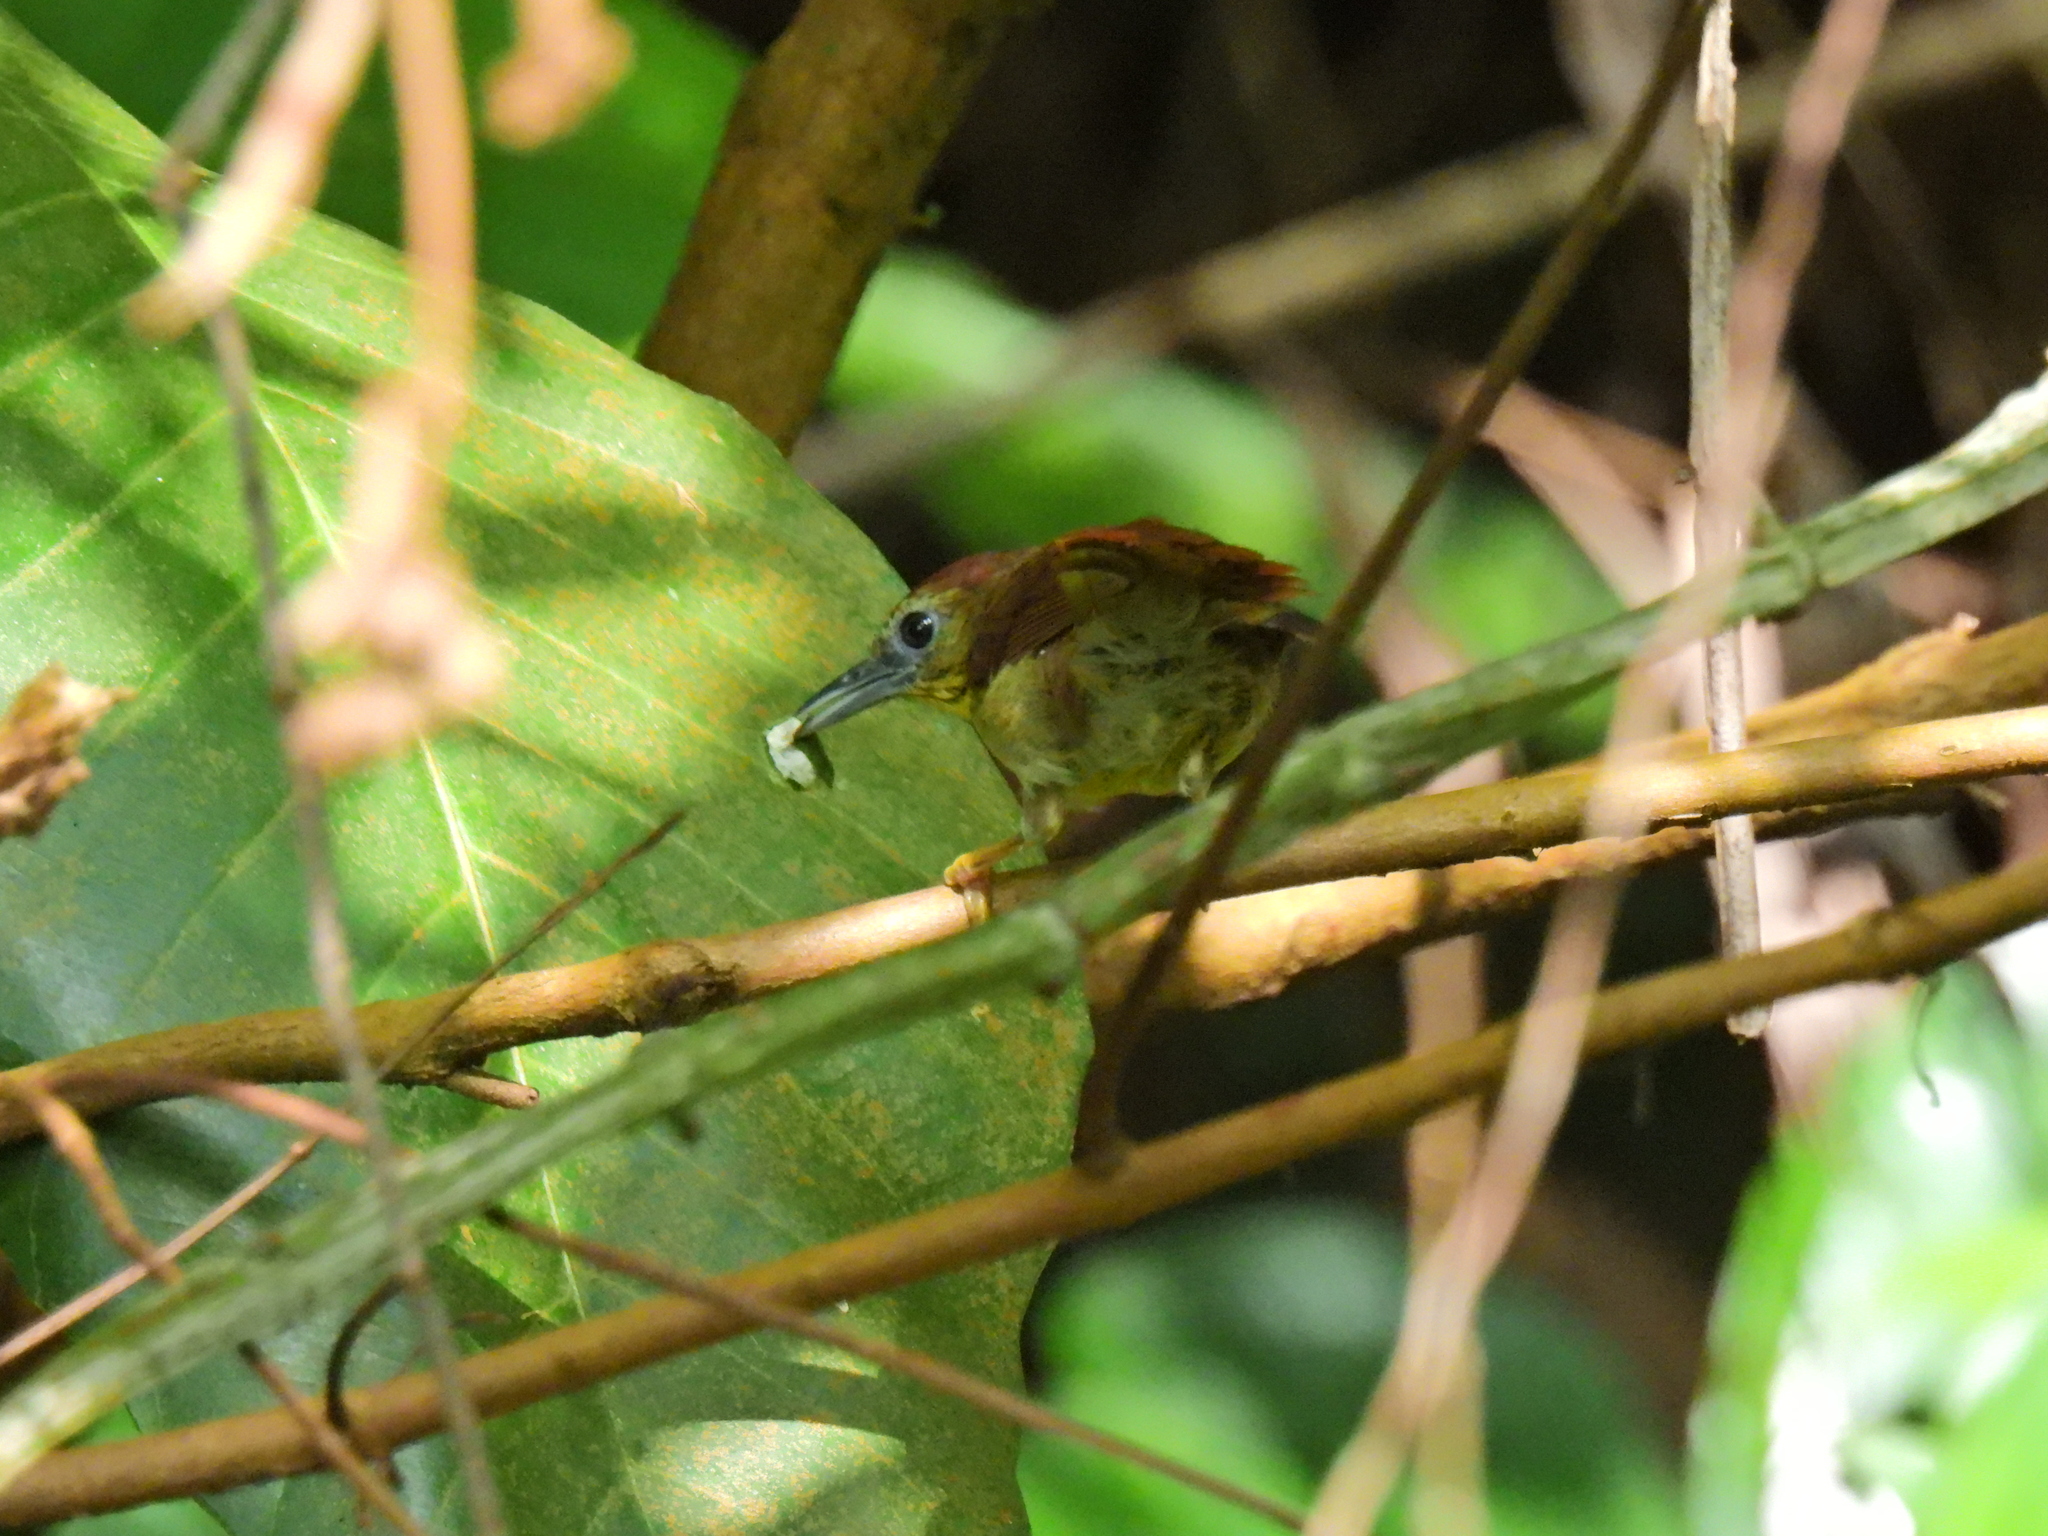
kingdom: Animalia
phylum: Chordata
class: Aves
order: Passeriformes
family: Timaliidae
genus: Macronus
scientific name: Macronus gularis
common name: Striped tit-babbler
